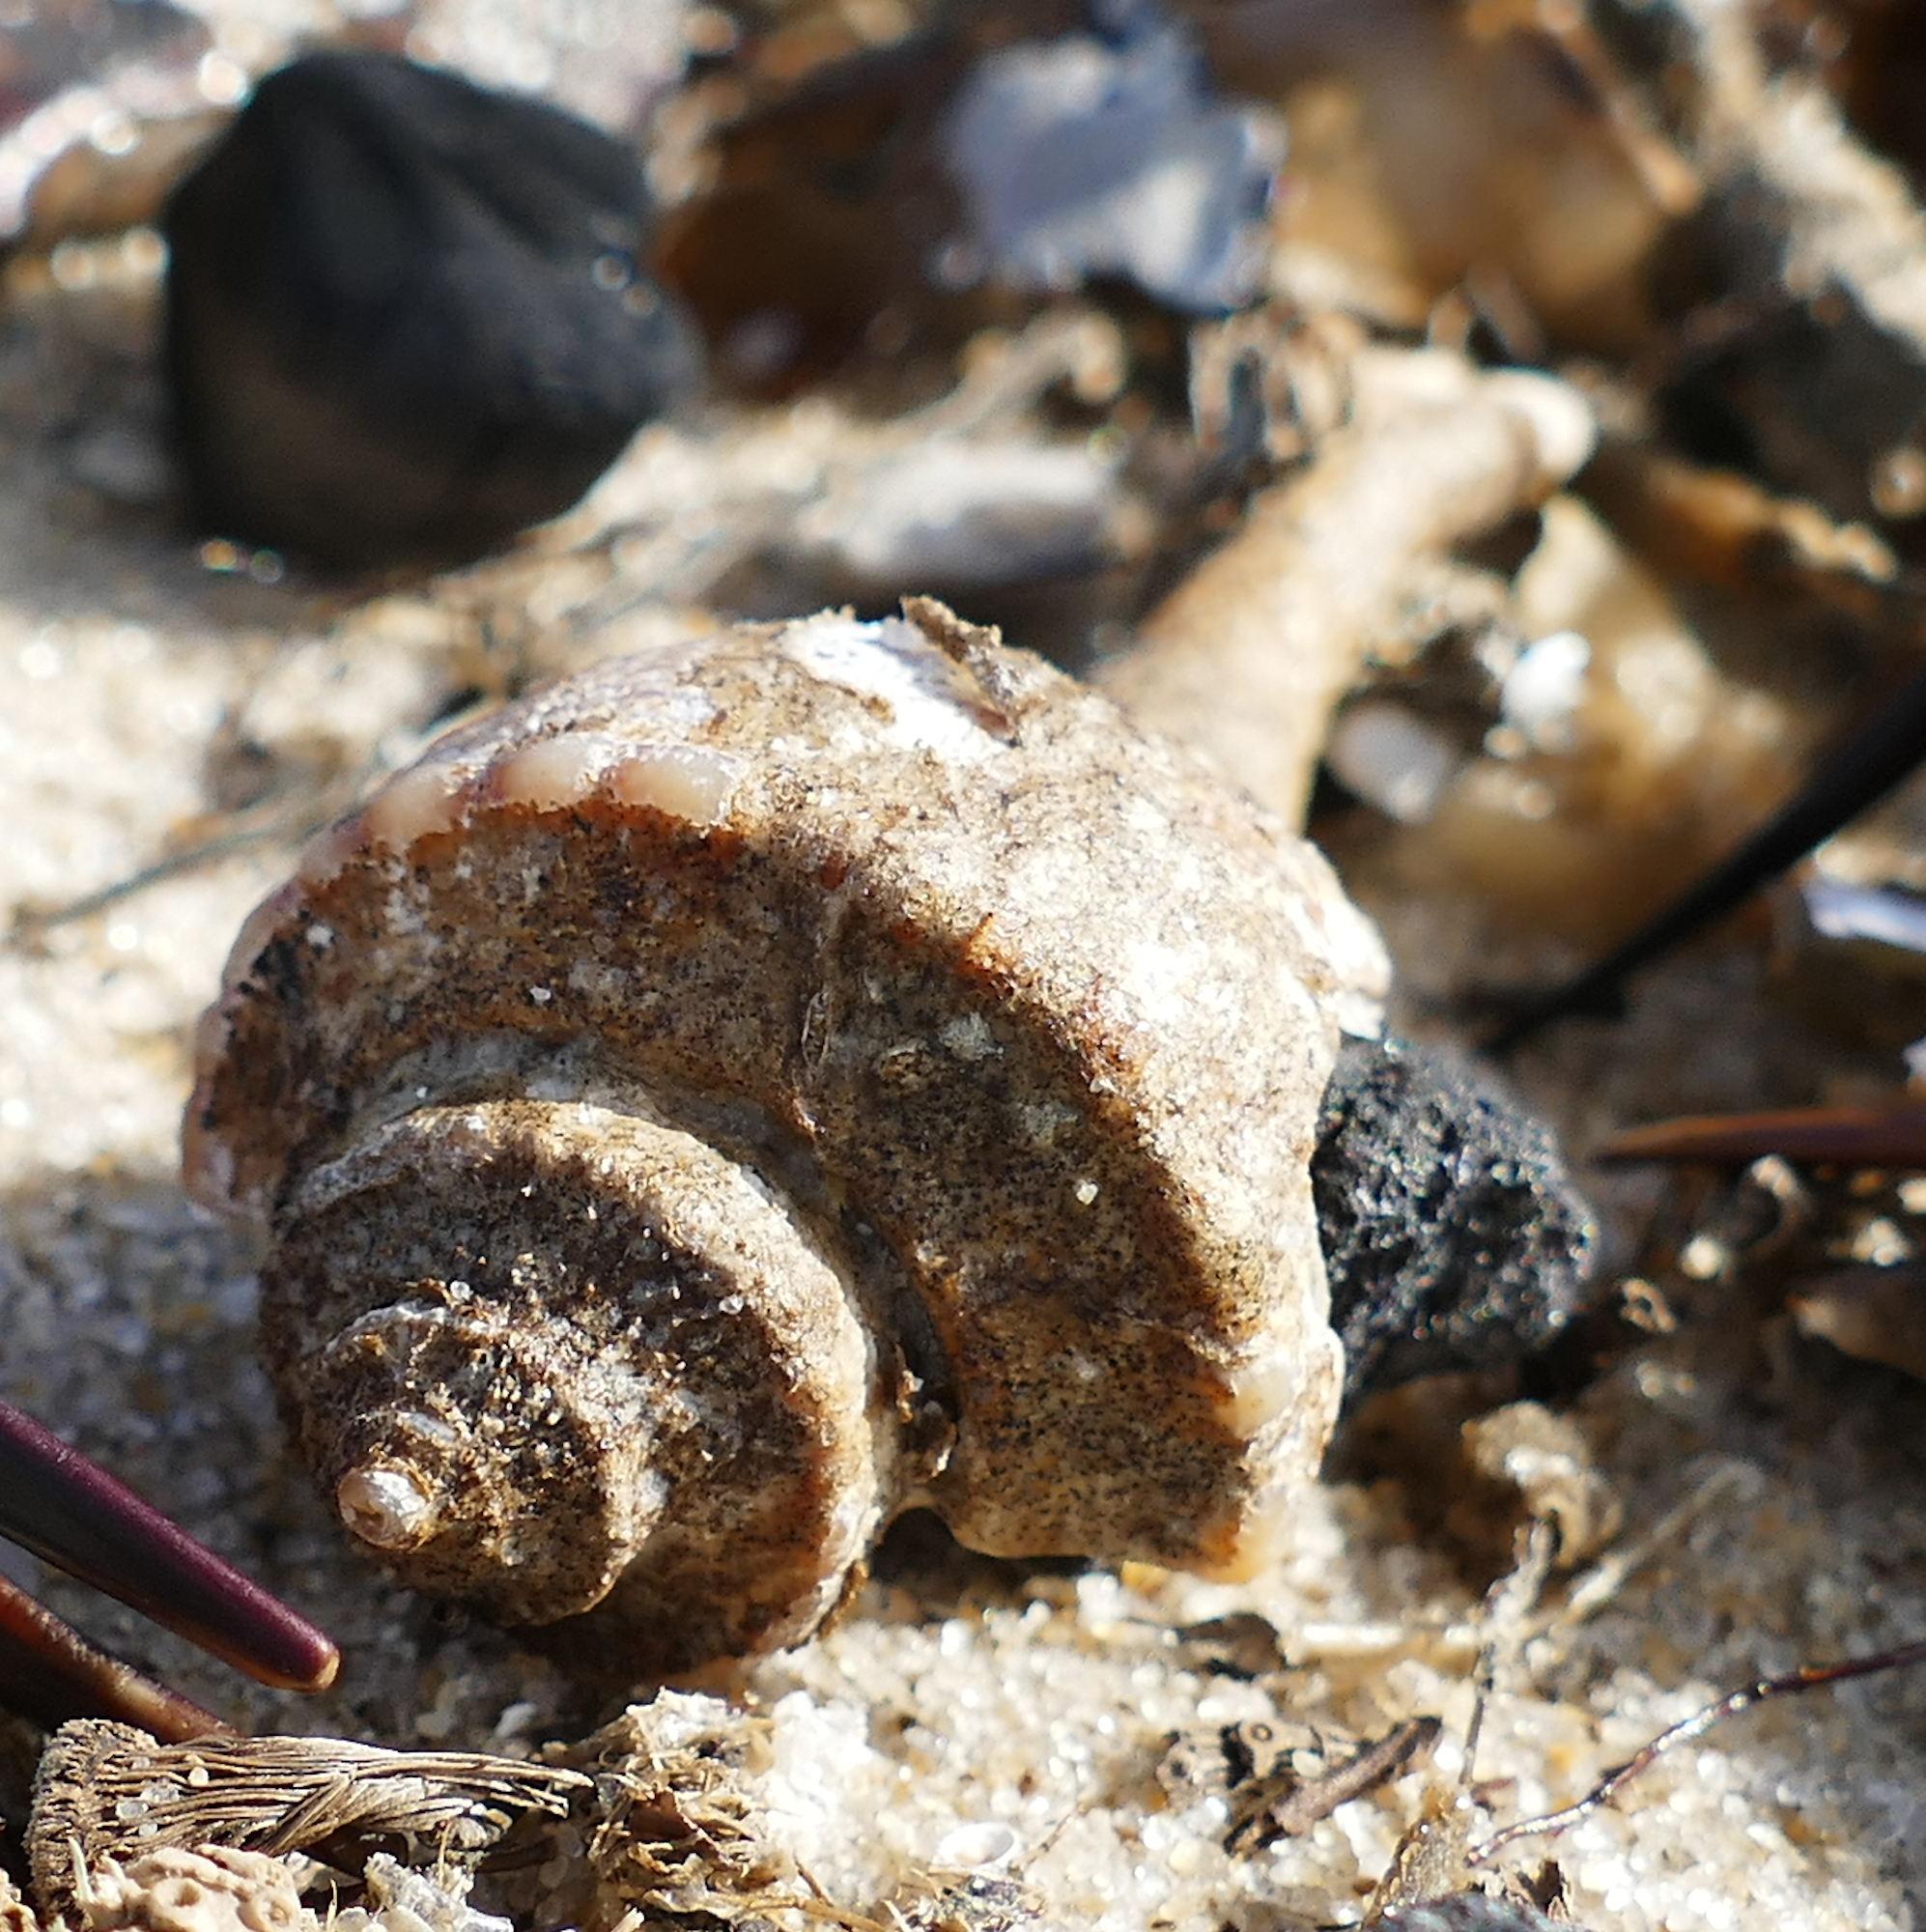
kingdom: Animalia
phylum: Mollusca
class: Gastropoda
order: Neogastropoda
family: Busyconidae
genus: Busycotypus
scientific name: Busycotypus canaliculatus
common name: Channeled whelk
